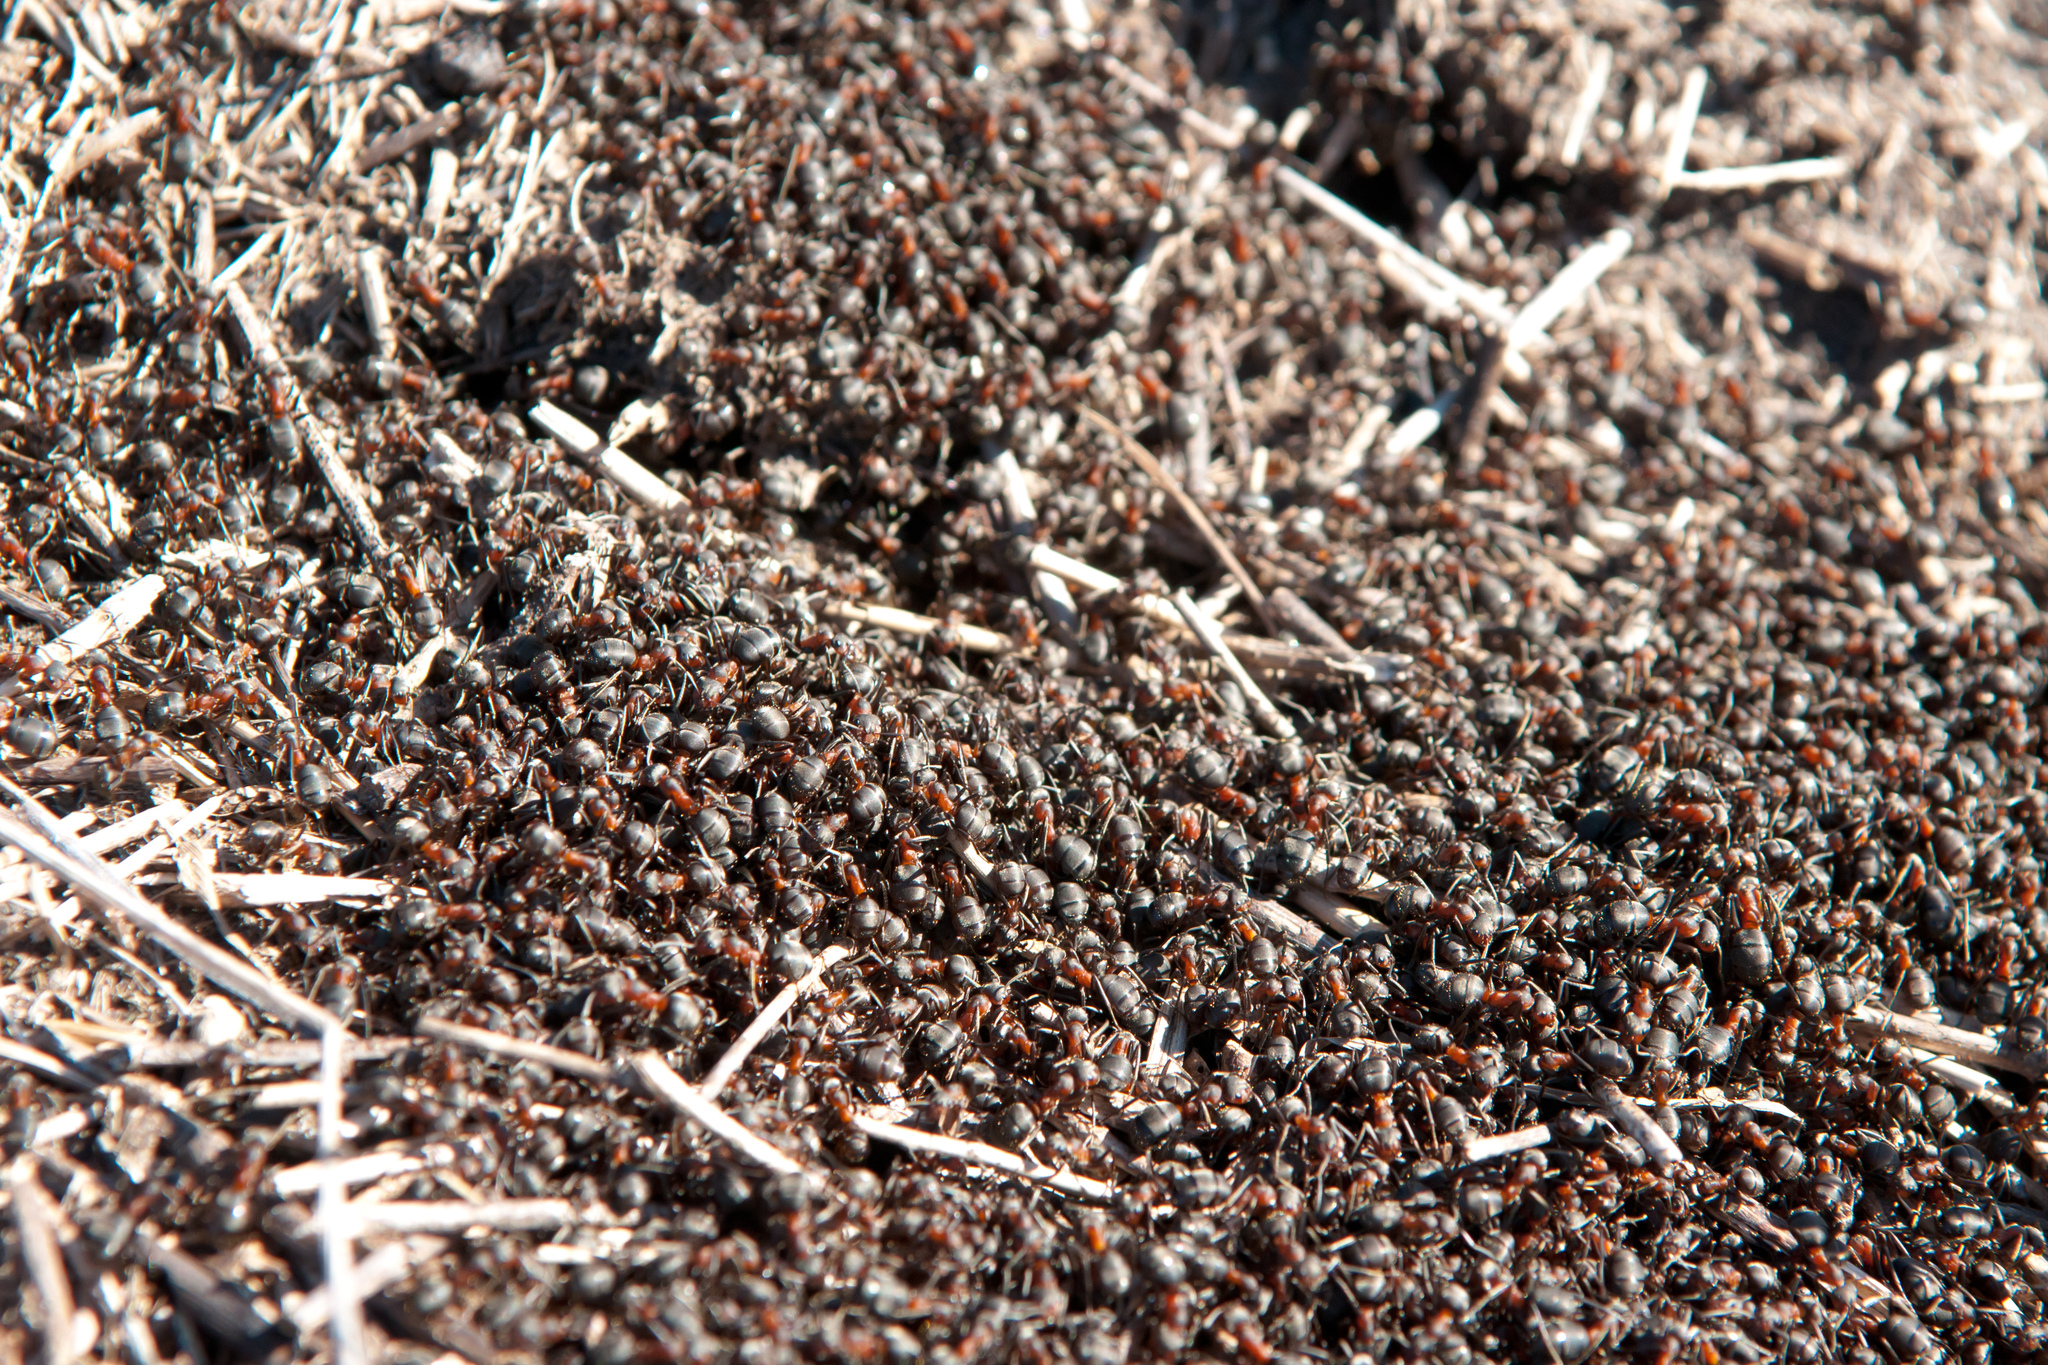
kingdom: Animalia
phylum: Arthropoda
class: Insecta
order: Hymenoptera
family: Formicidae
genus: Formica
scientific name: Formica rufa
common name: Red wood ant
